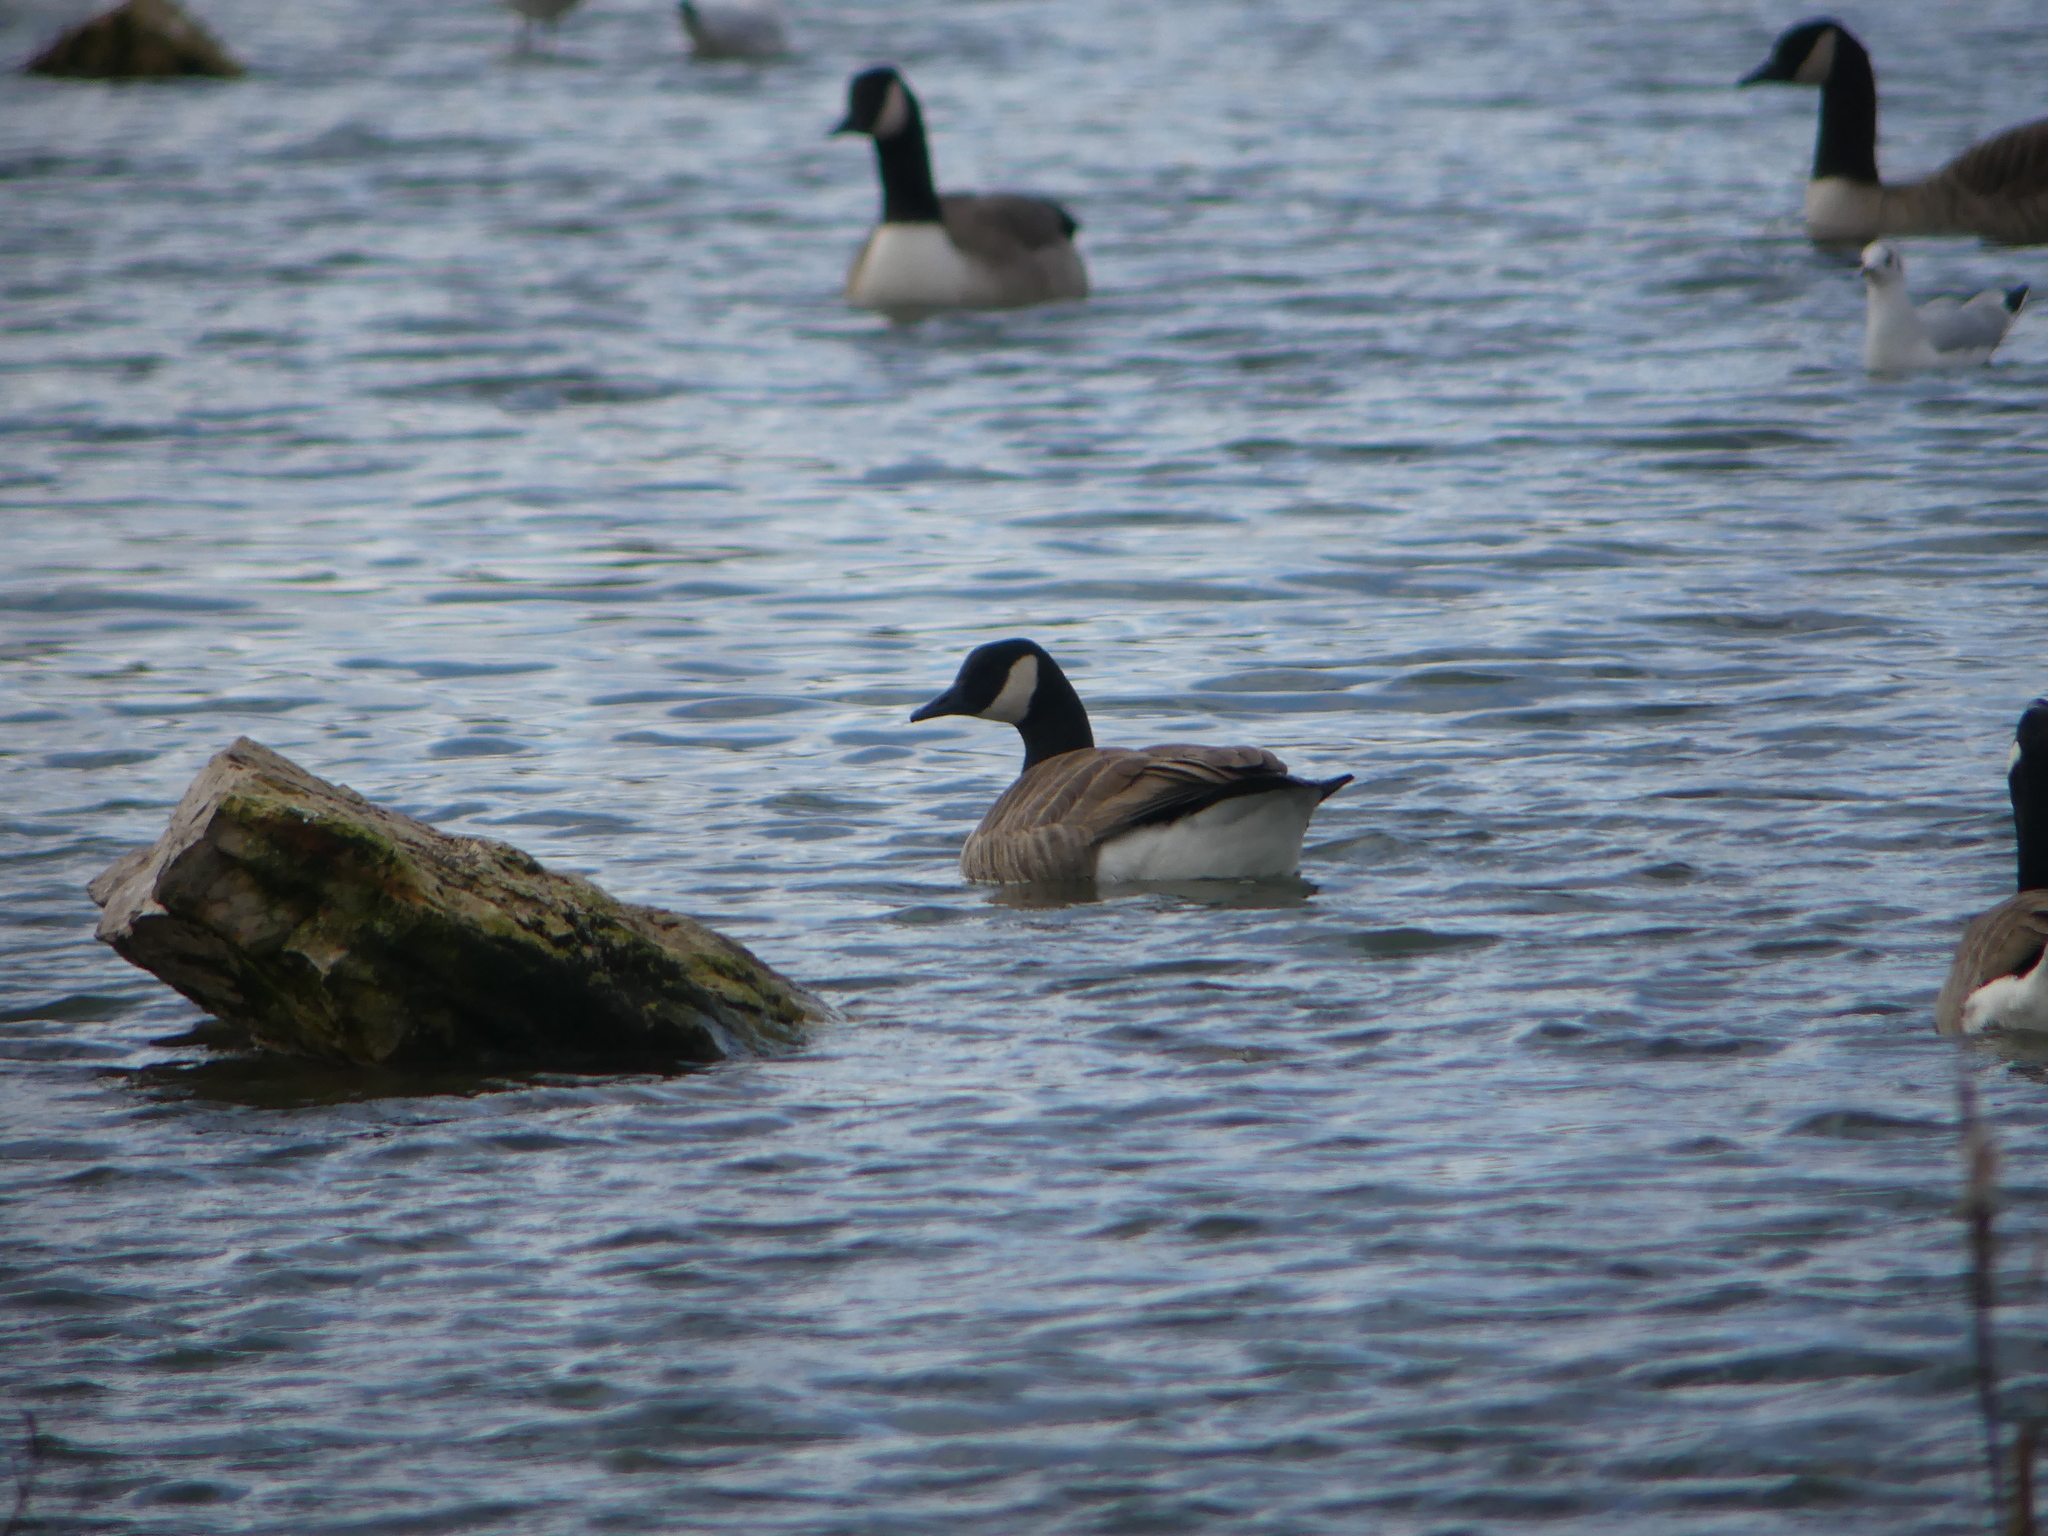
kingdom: Animalia
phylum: Chordata
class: Aves
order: Anseriformes
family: Anatidae
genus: Branta
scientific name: Branta canadensis
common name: Canada goose
